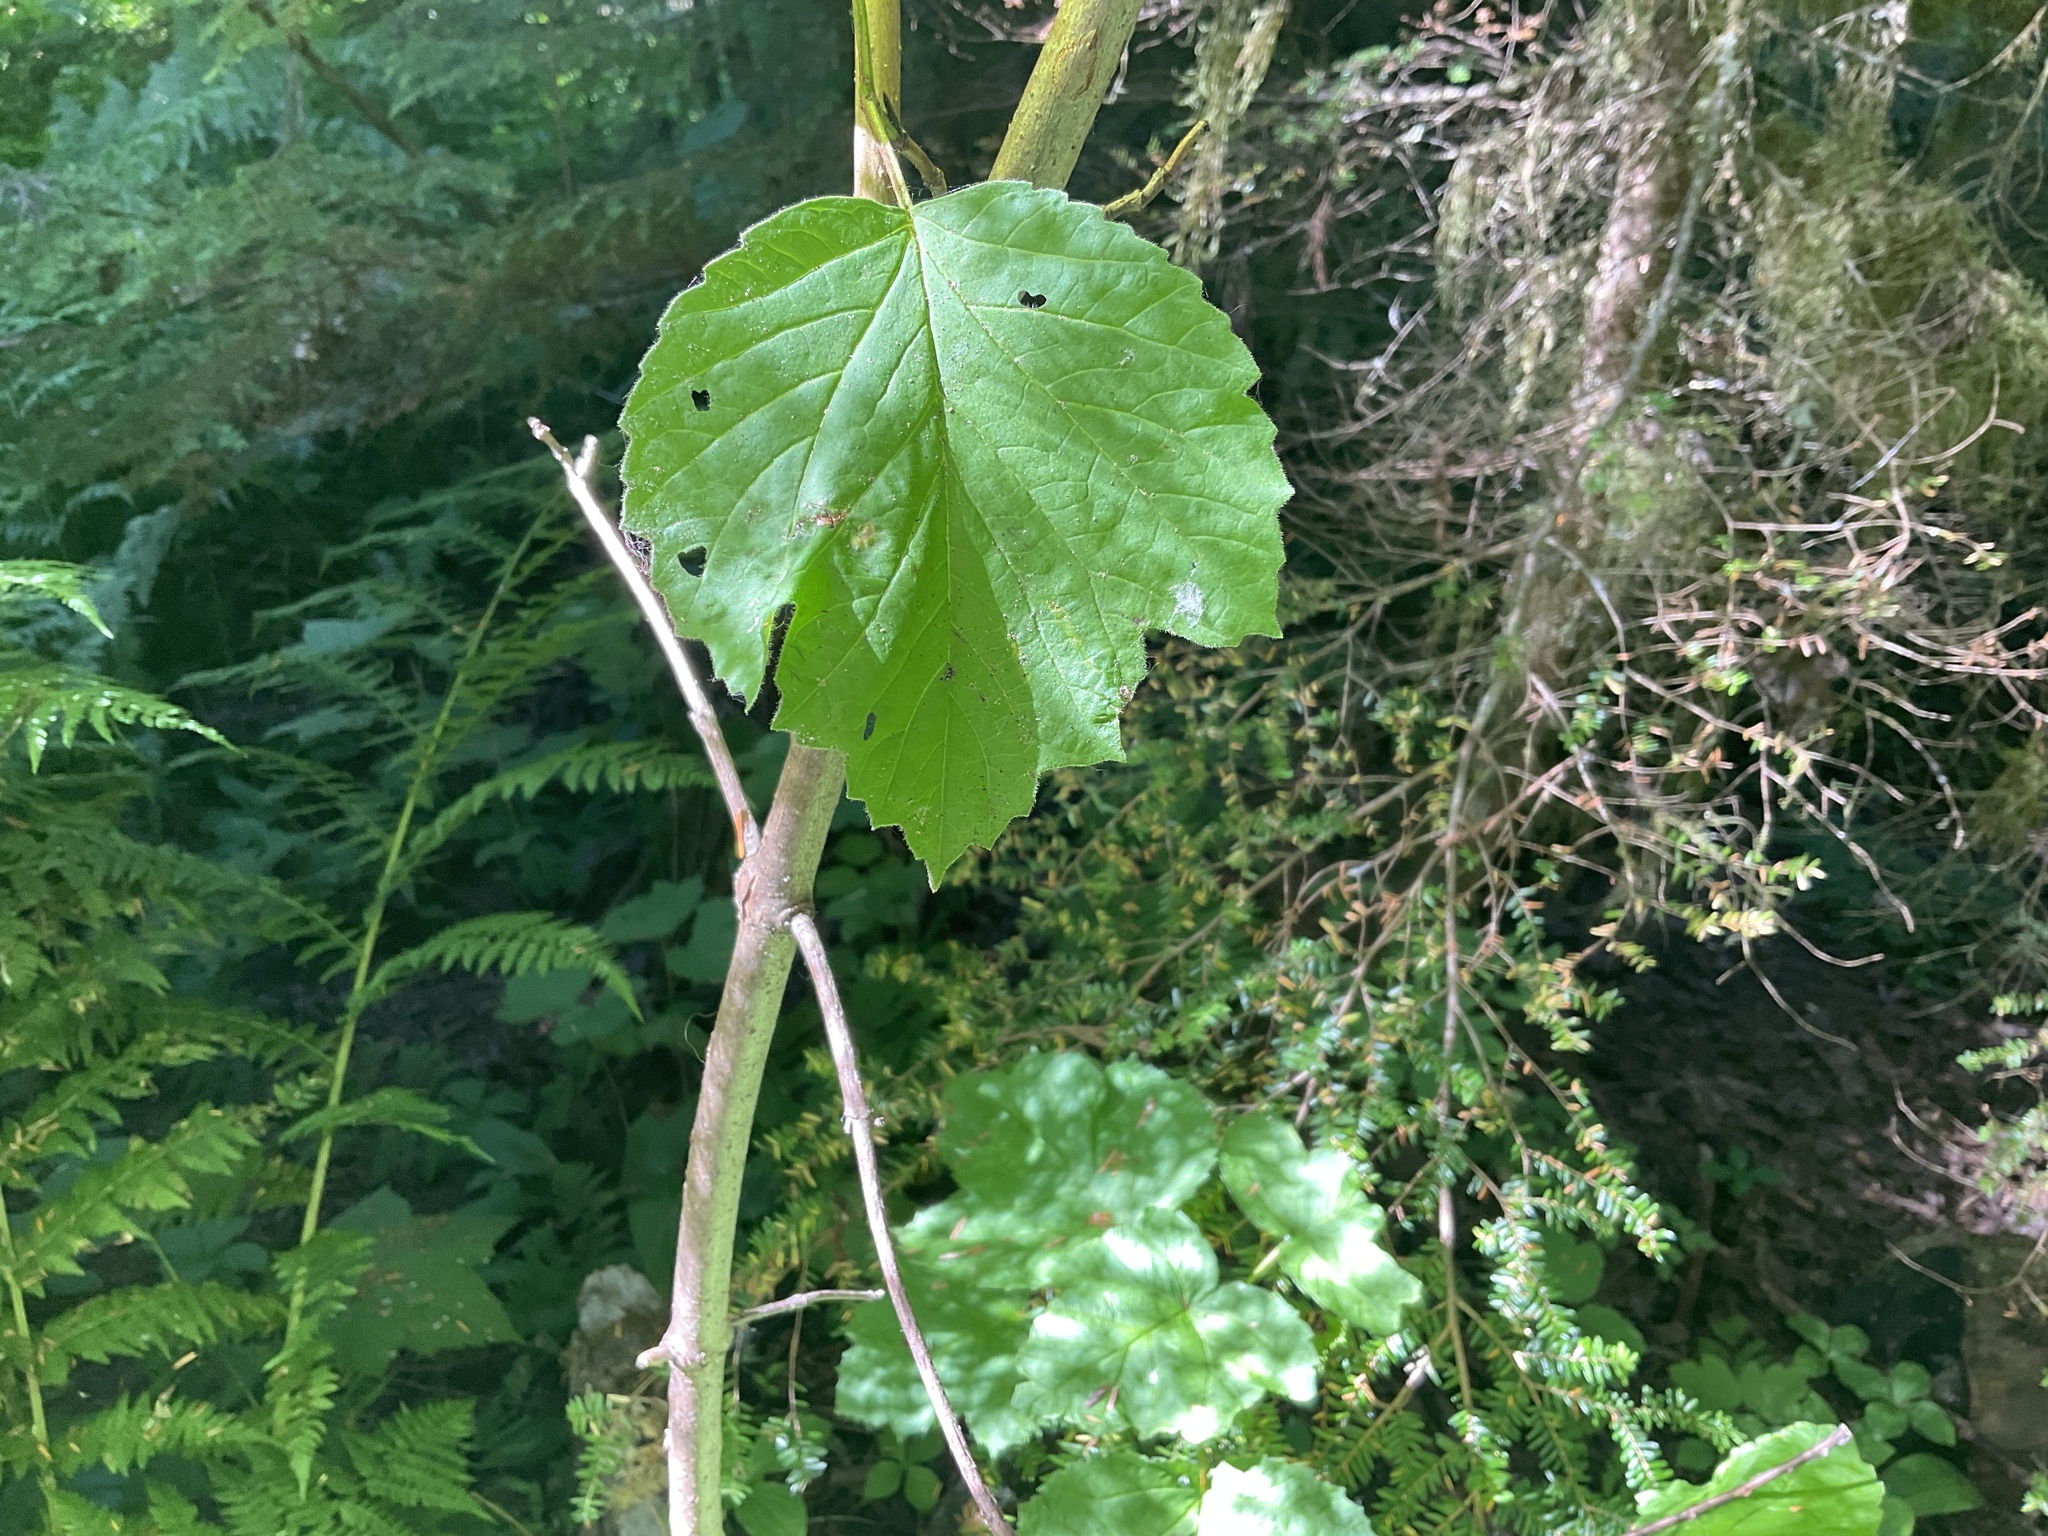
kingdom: Plantae
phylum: Tracheophyta
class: Magnoliopsida
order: Dipsacales
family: Viburnaceae
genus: Viburnum
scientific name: Viburnum edule
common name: Mooseberry
